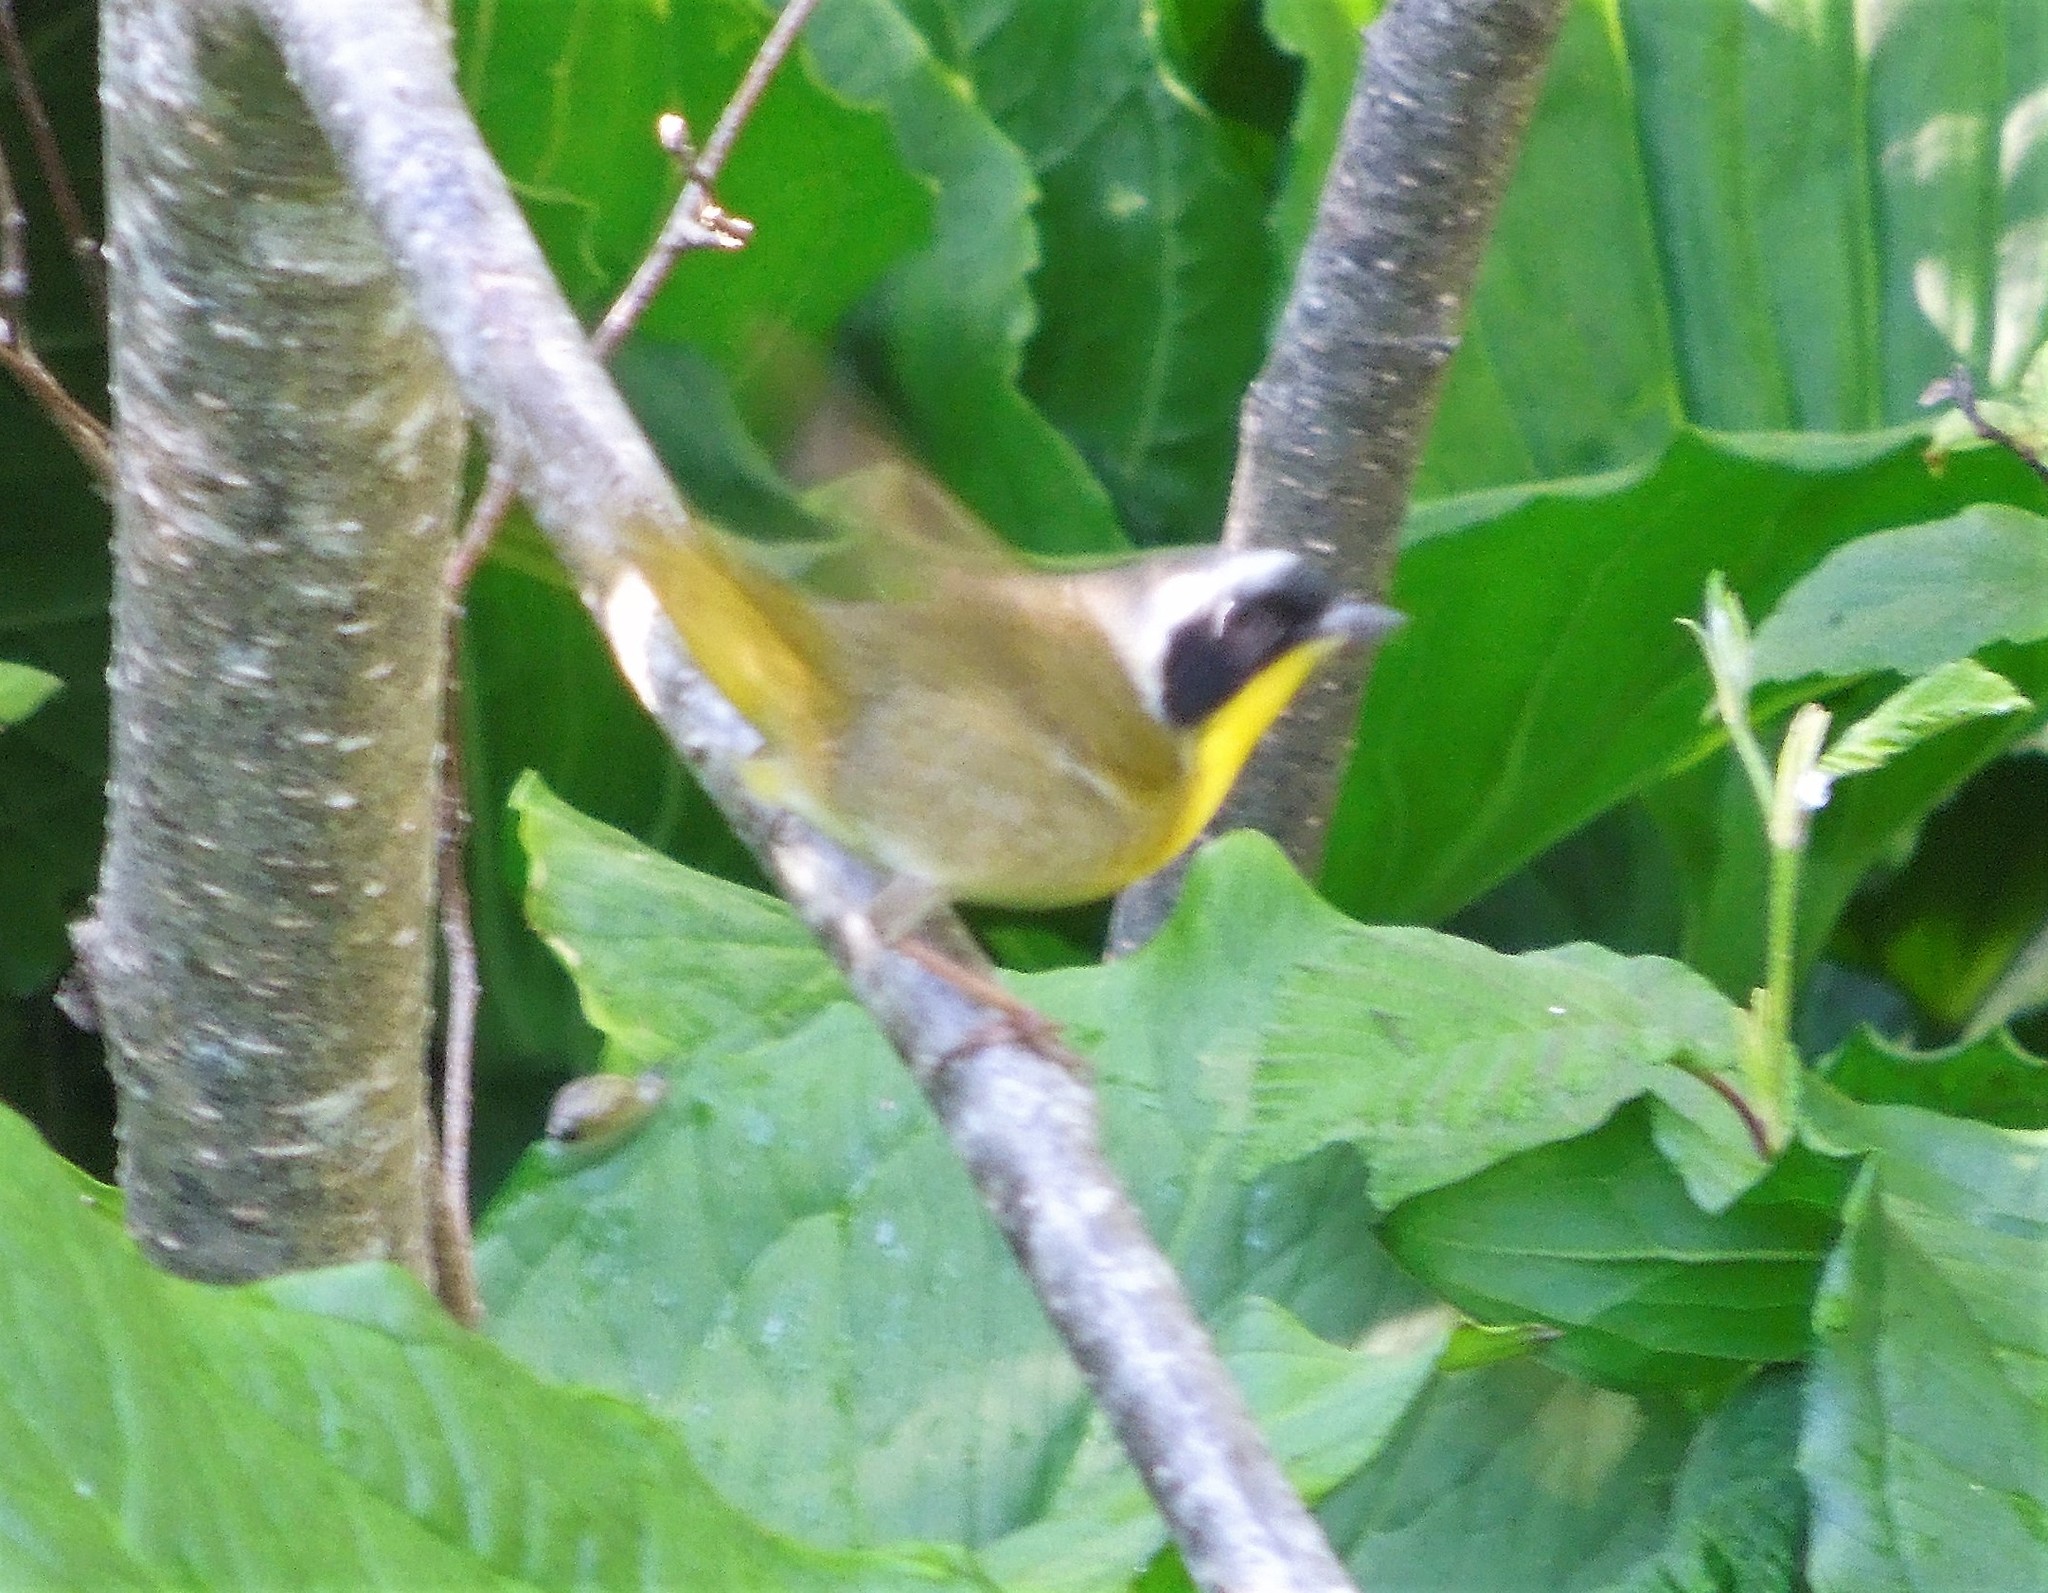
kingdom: Animalia
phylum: Chordata
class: Aves
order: Passeriformes
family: Parulidae
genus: Geothlypis
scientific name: Geothlypis trichas
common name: Common yellowthroat
